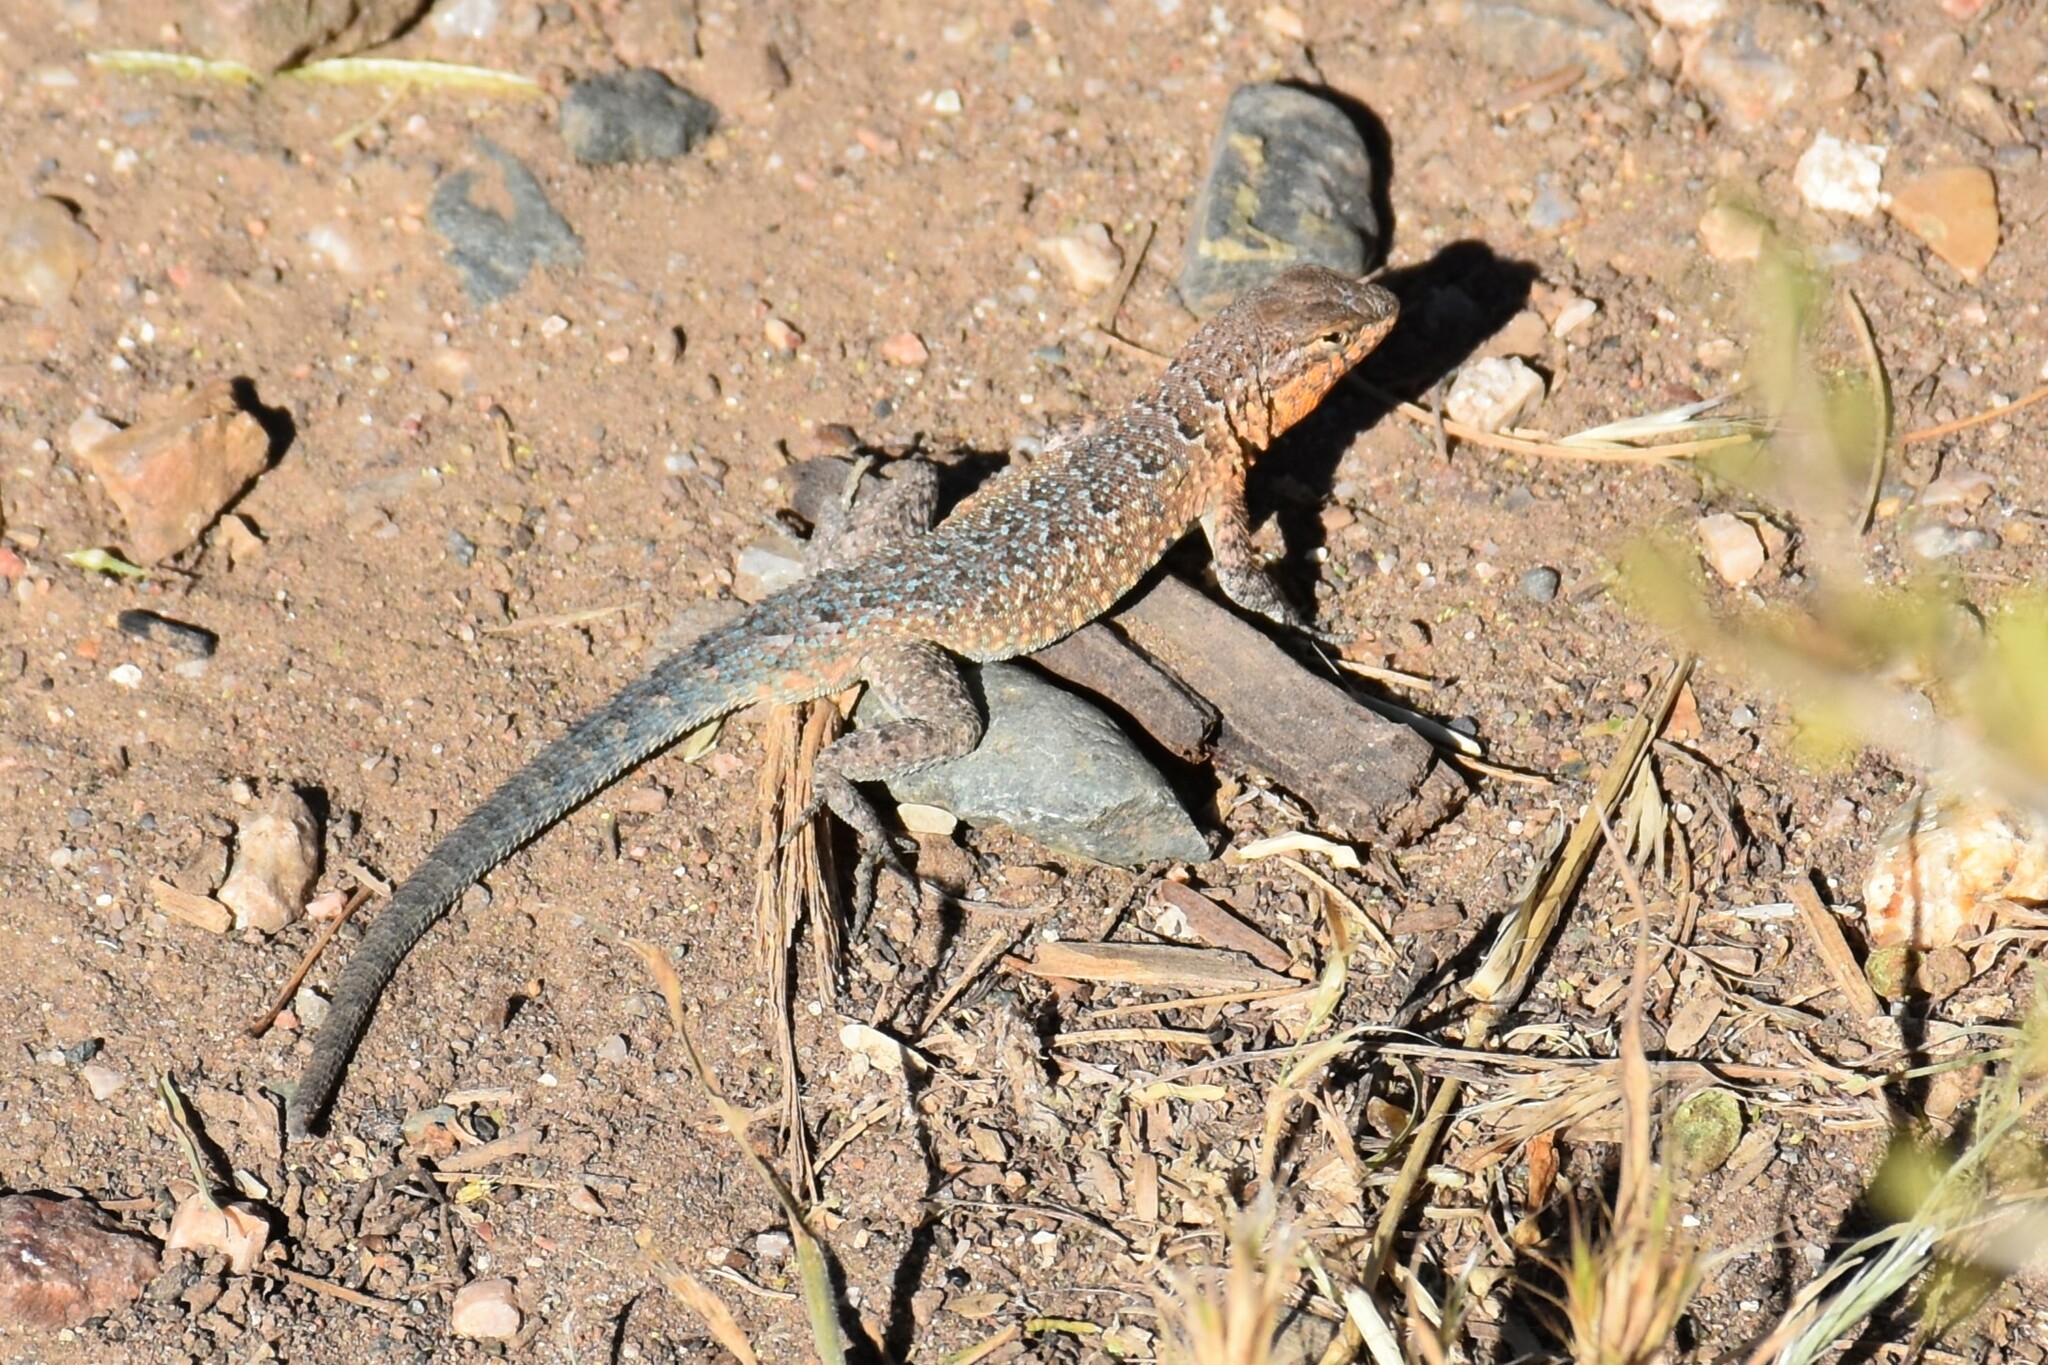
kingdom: Animalia
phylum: Chordata
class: Squamata
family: Phrynosomatidae
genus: Uta
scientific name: Uta stansburiana
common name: Side-blotched lizard
